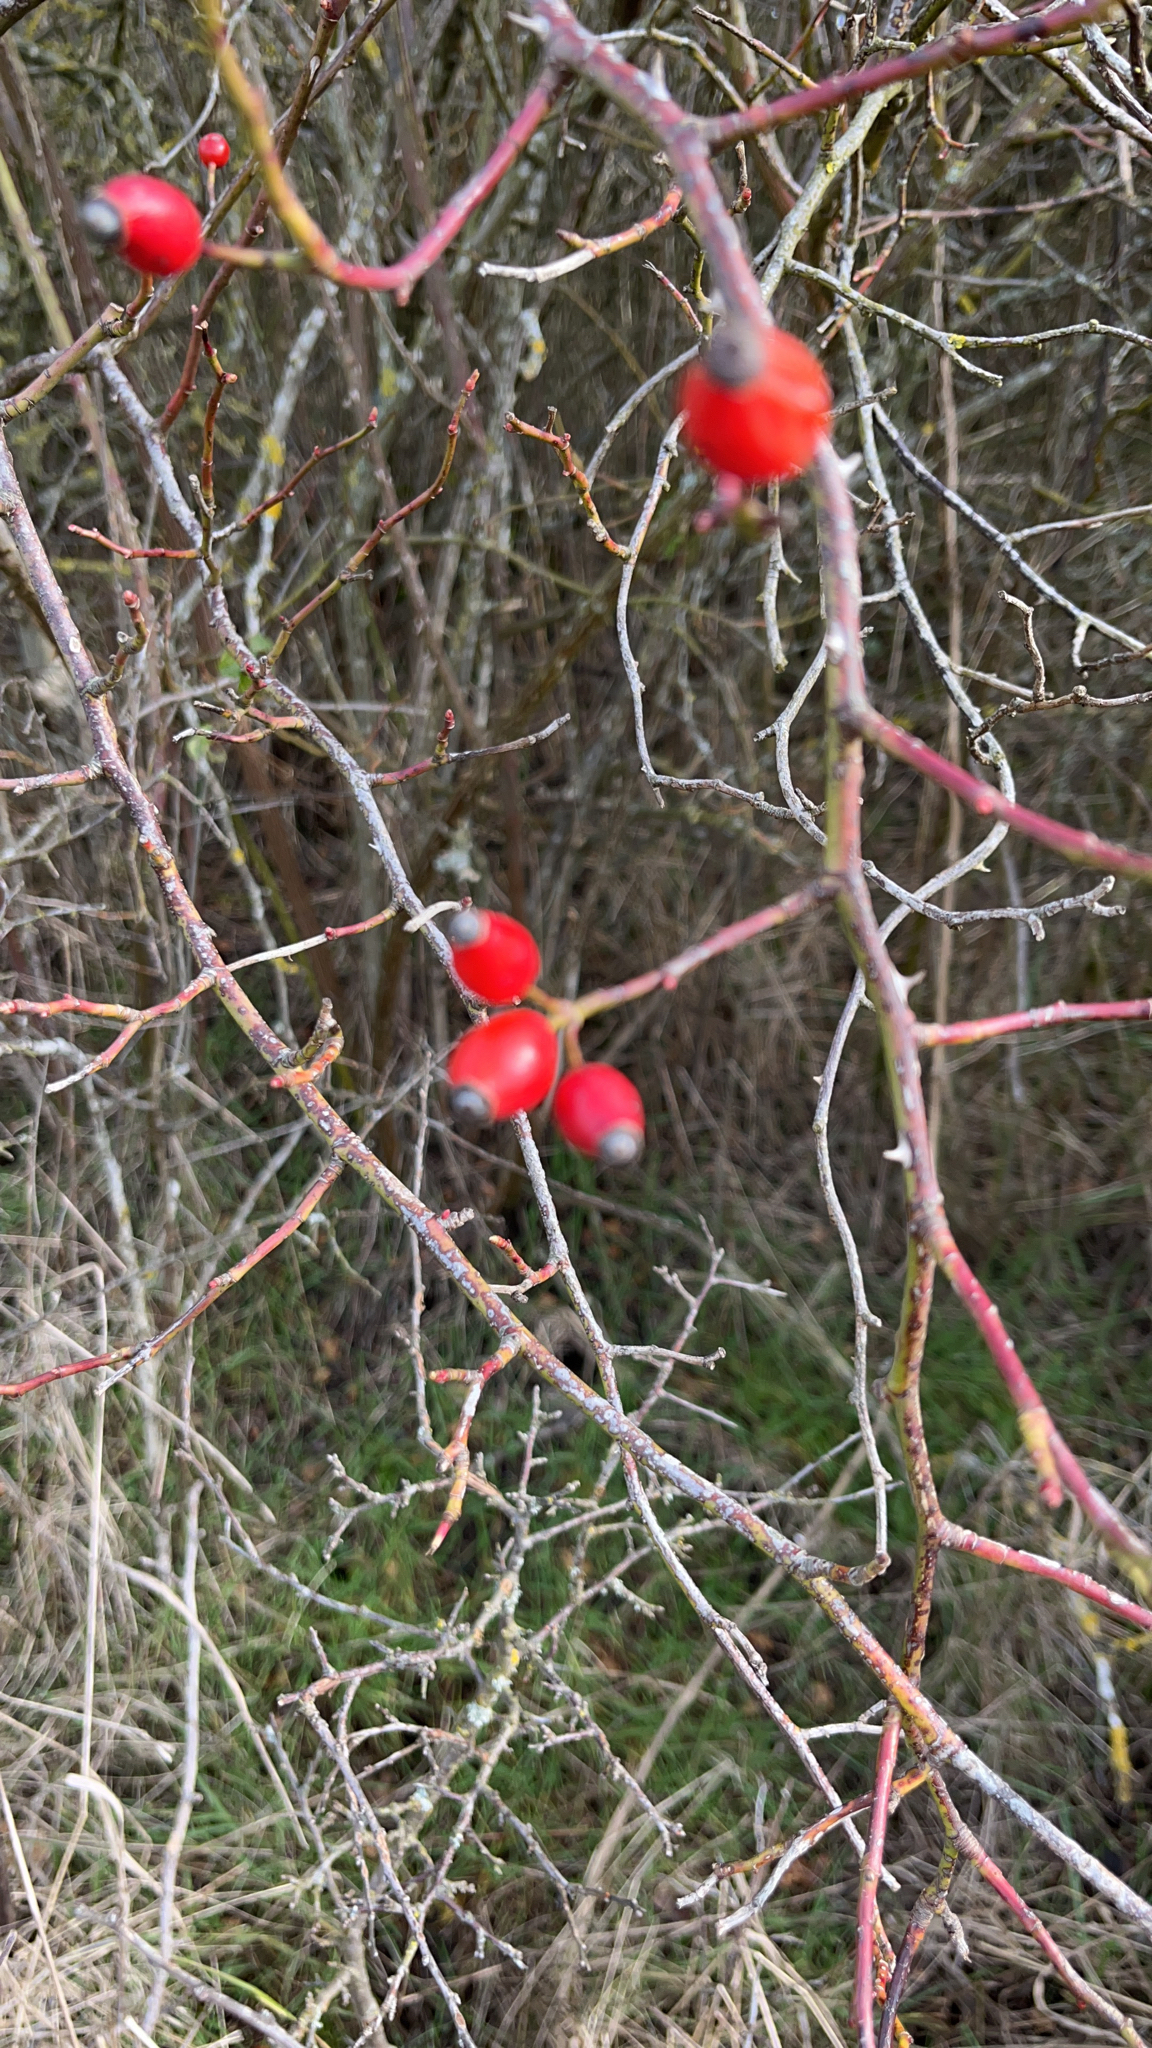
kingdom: Plantae
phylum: Tracheophyta
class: Magnoliopsida
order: Rosales
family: Rosaceae
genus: Rosa
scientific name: Rosa canina
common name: Dog rose
